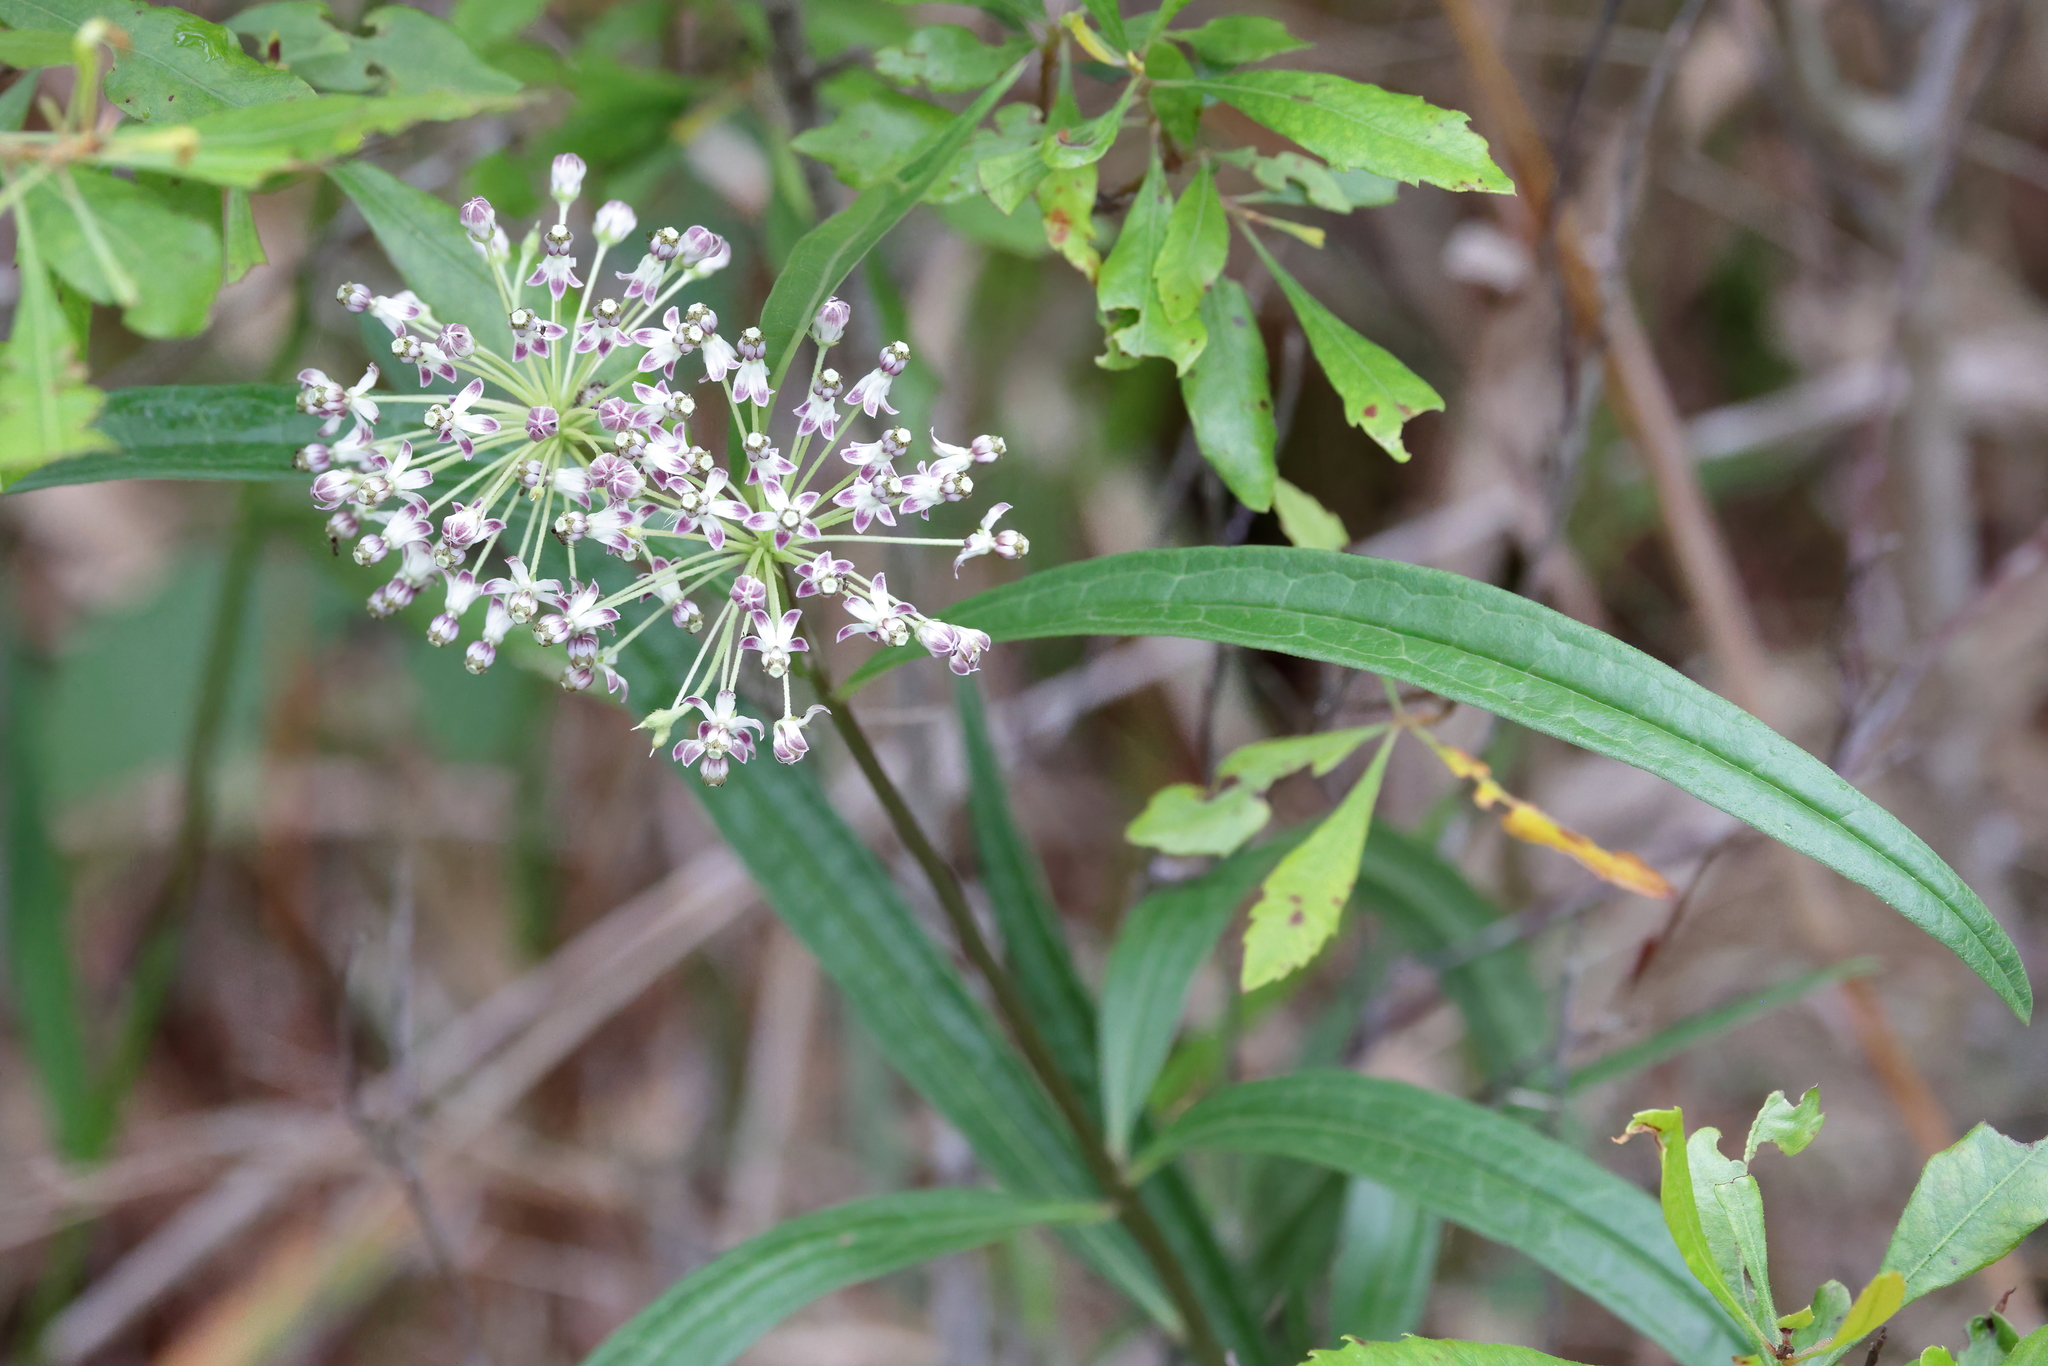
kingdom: Plantae
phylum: Tracheophyta
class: Magnoliopsida
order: Gentianales
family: Apocynaceae
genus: Asclepias
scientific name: Asclepias longifolia
